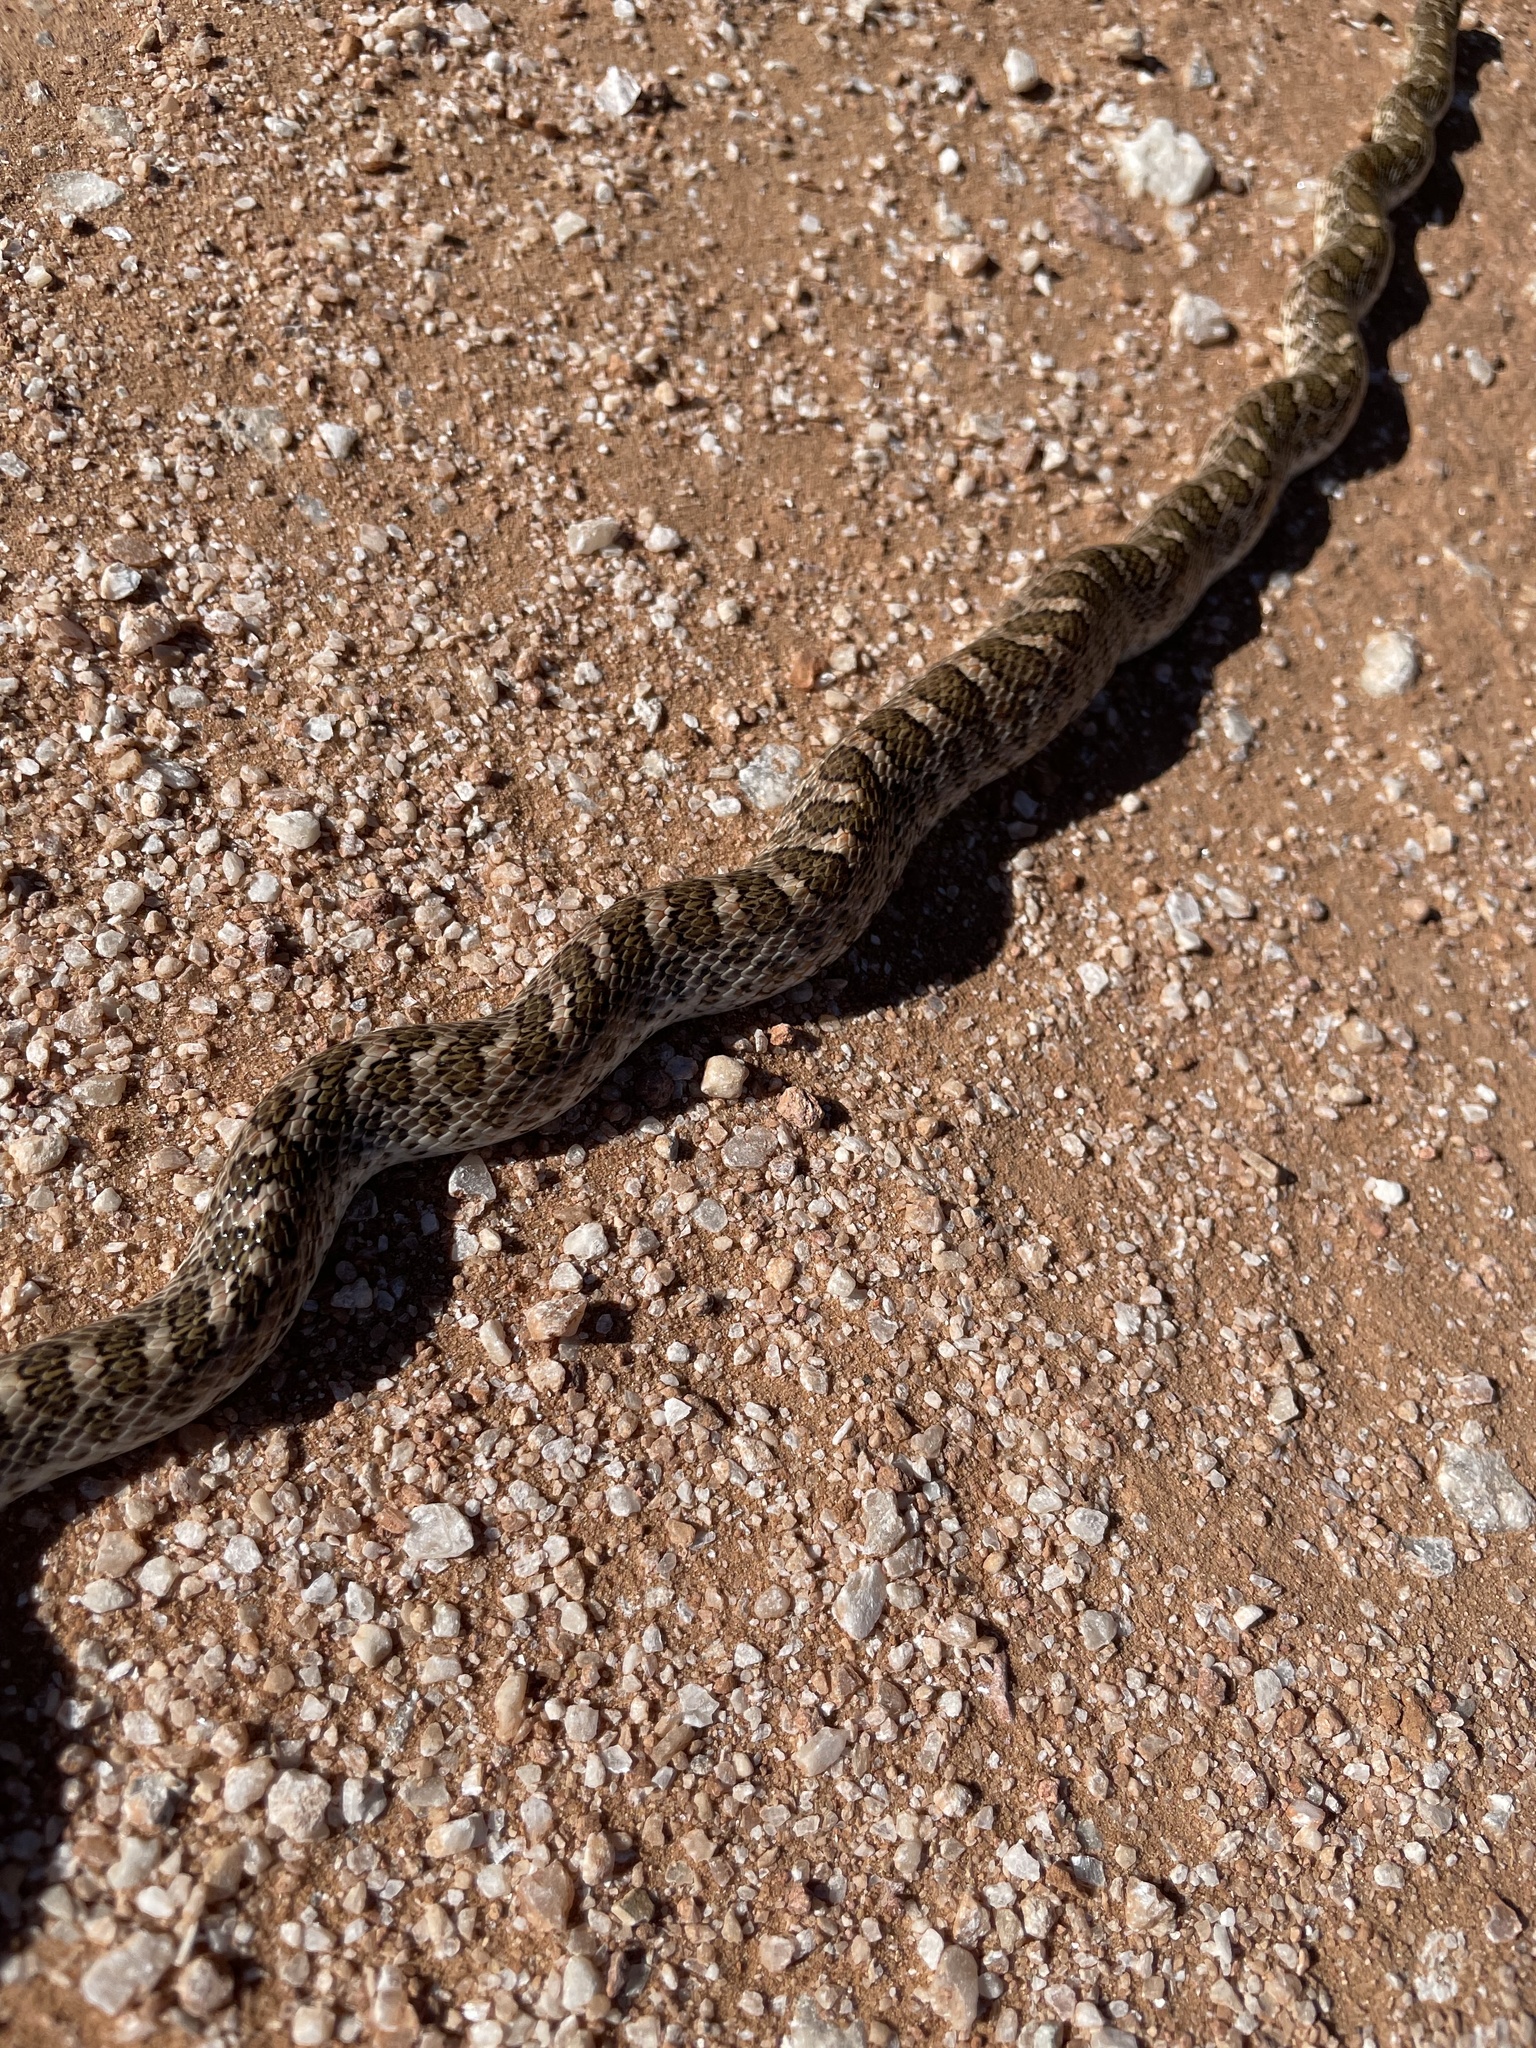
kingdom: Animalia
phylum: Chordata
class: Squamata
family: Colubridae
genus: Arizona
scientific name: Arizona elegans
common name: Glossy snake
